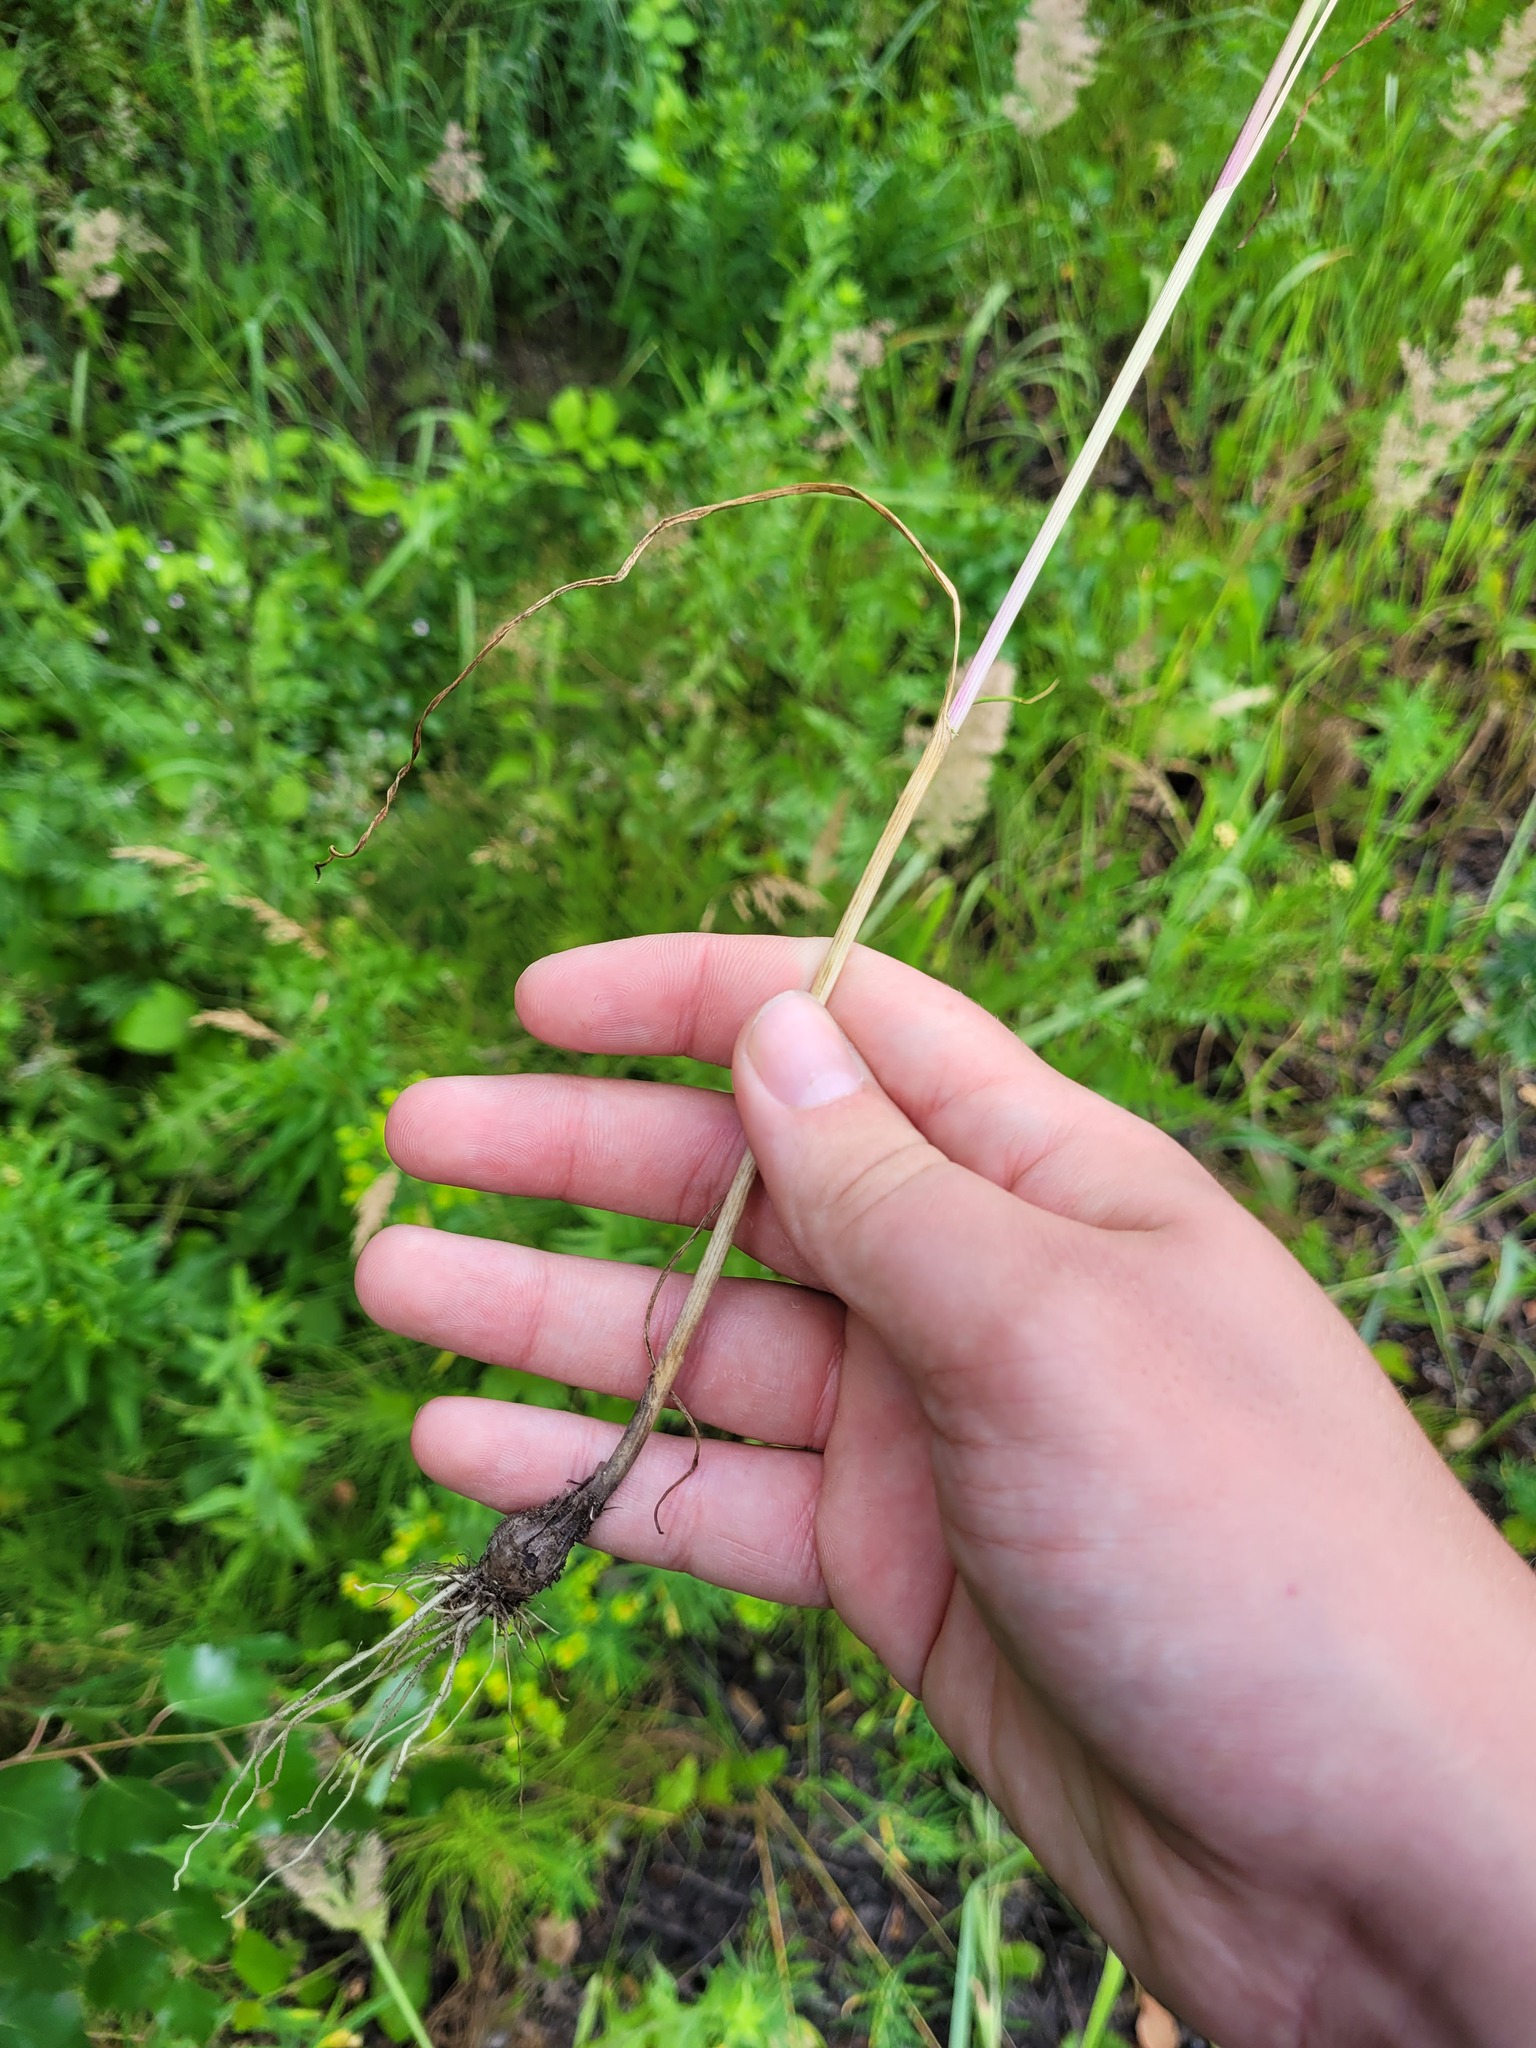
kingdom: Plantae
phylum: Tracheophyta
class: Liliopsida
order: Asparagales
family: Amaryllidaceae
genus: Allium
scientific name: Allium oleraceum
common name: Field garlic
